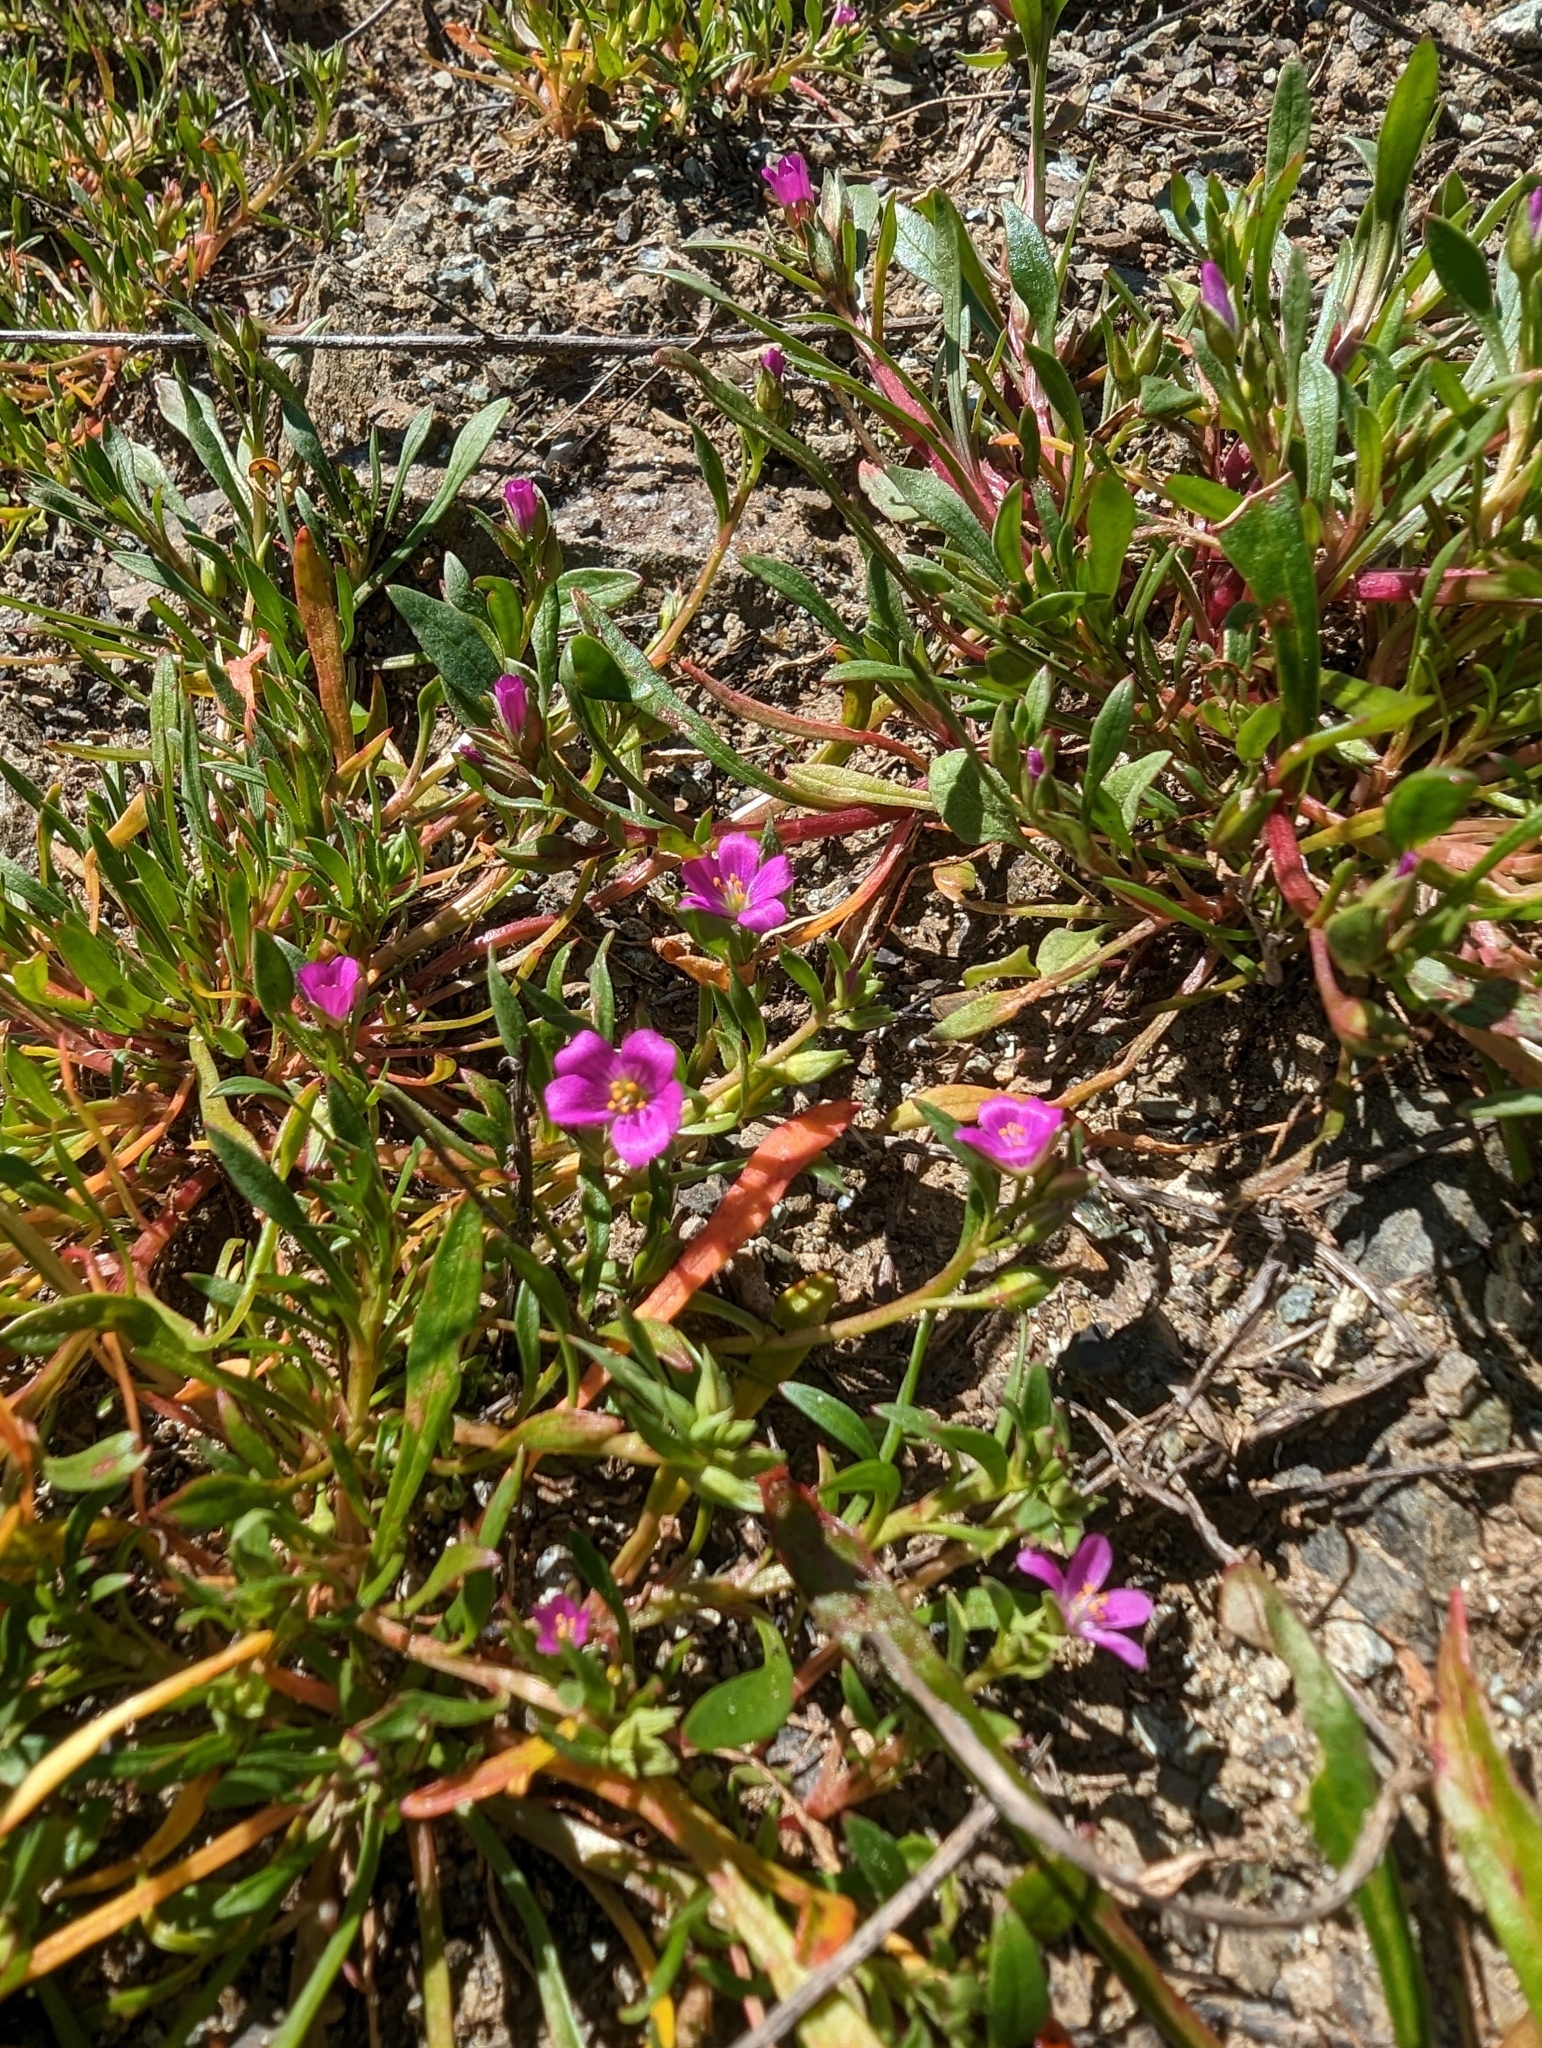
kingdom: Plantae
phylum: Tracheophyta
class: Magnoliopsida
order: Caryophyllales
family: Montiaceae
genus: Calandrinia
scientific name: Calandrinia menziesii
